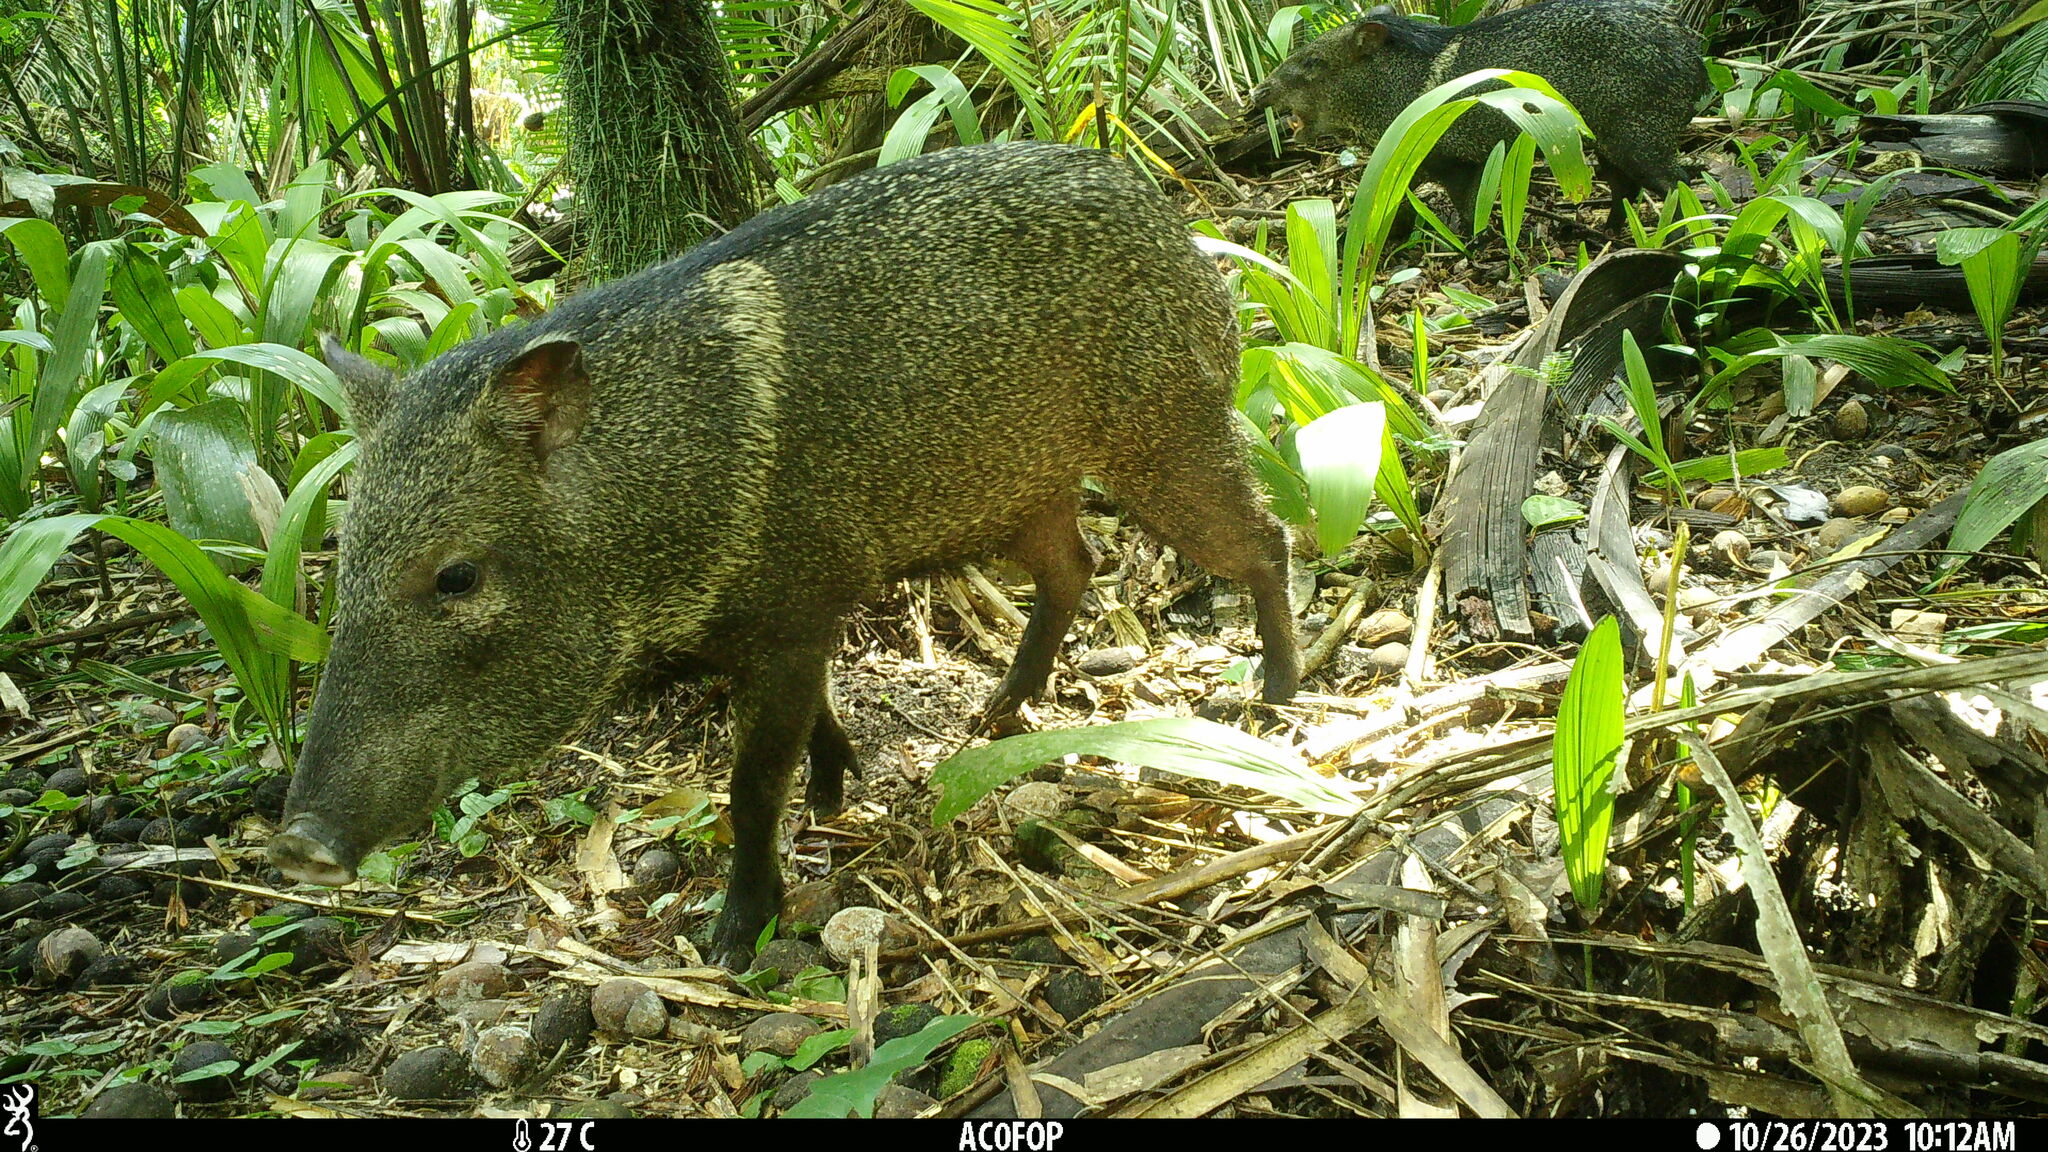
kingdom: Animalia
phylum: Chordata
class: Mammalia
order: Artiodactyla
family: Tayassuidae
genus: Pecari
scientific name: Pecari tajacu
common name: Collared peccary
